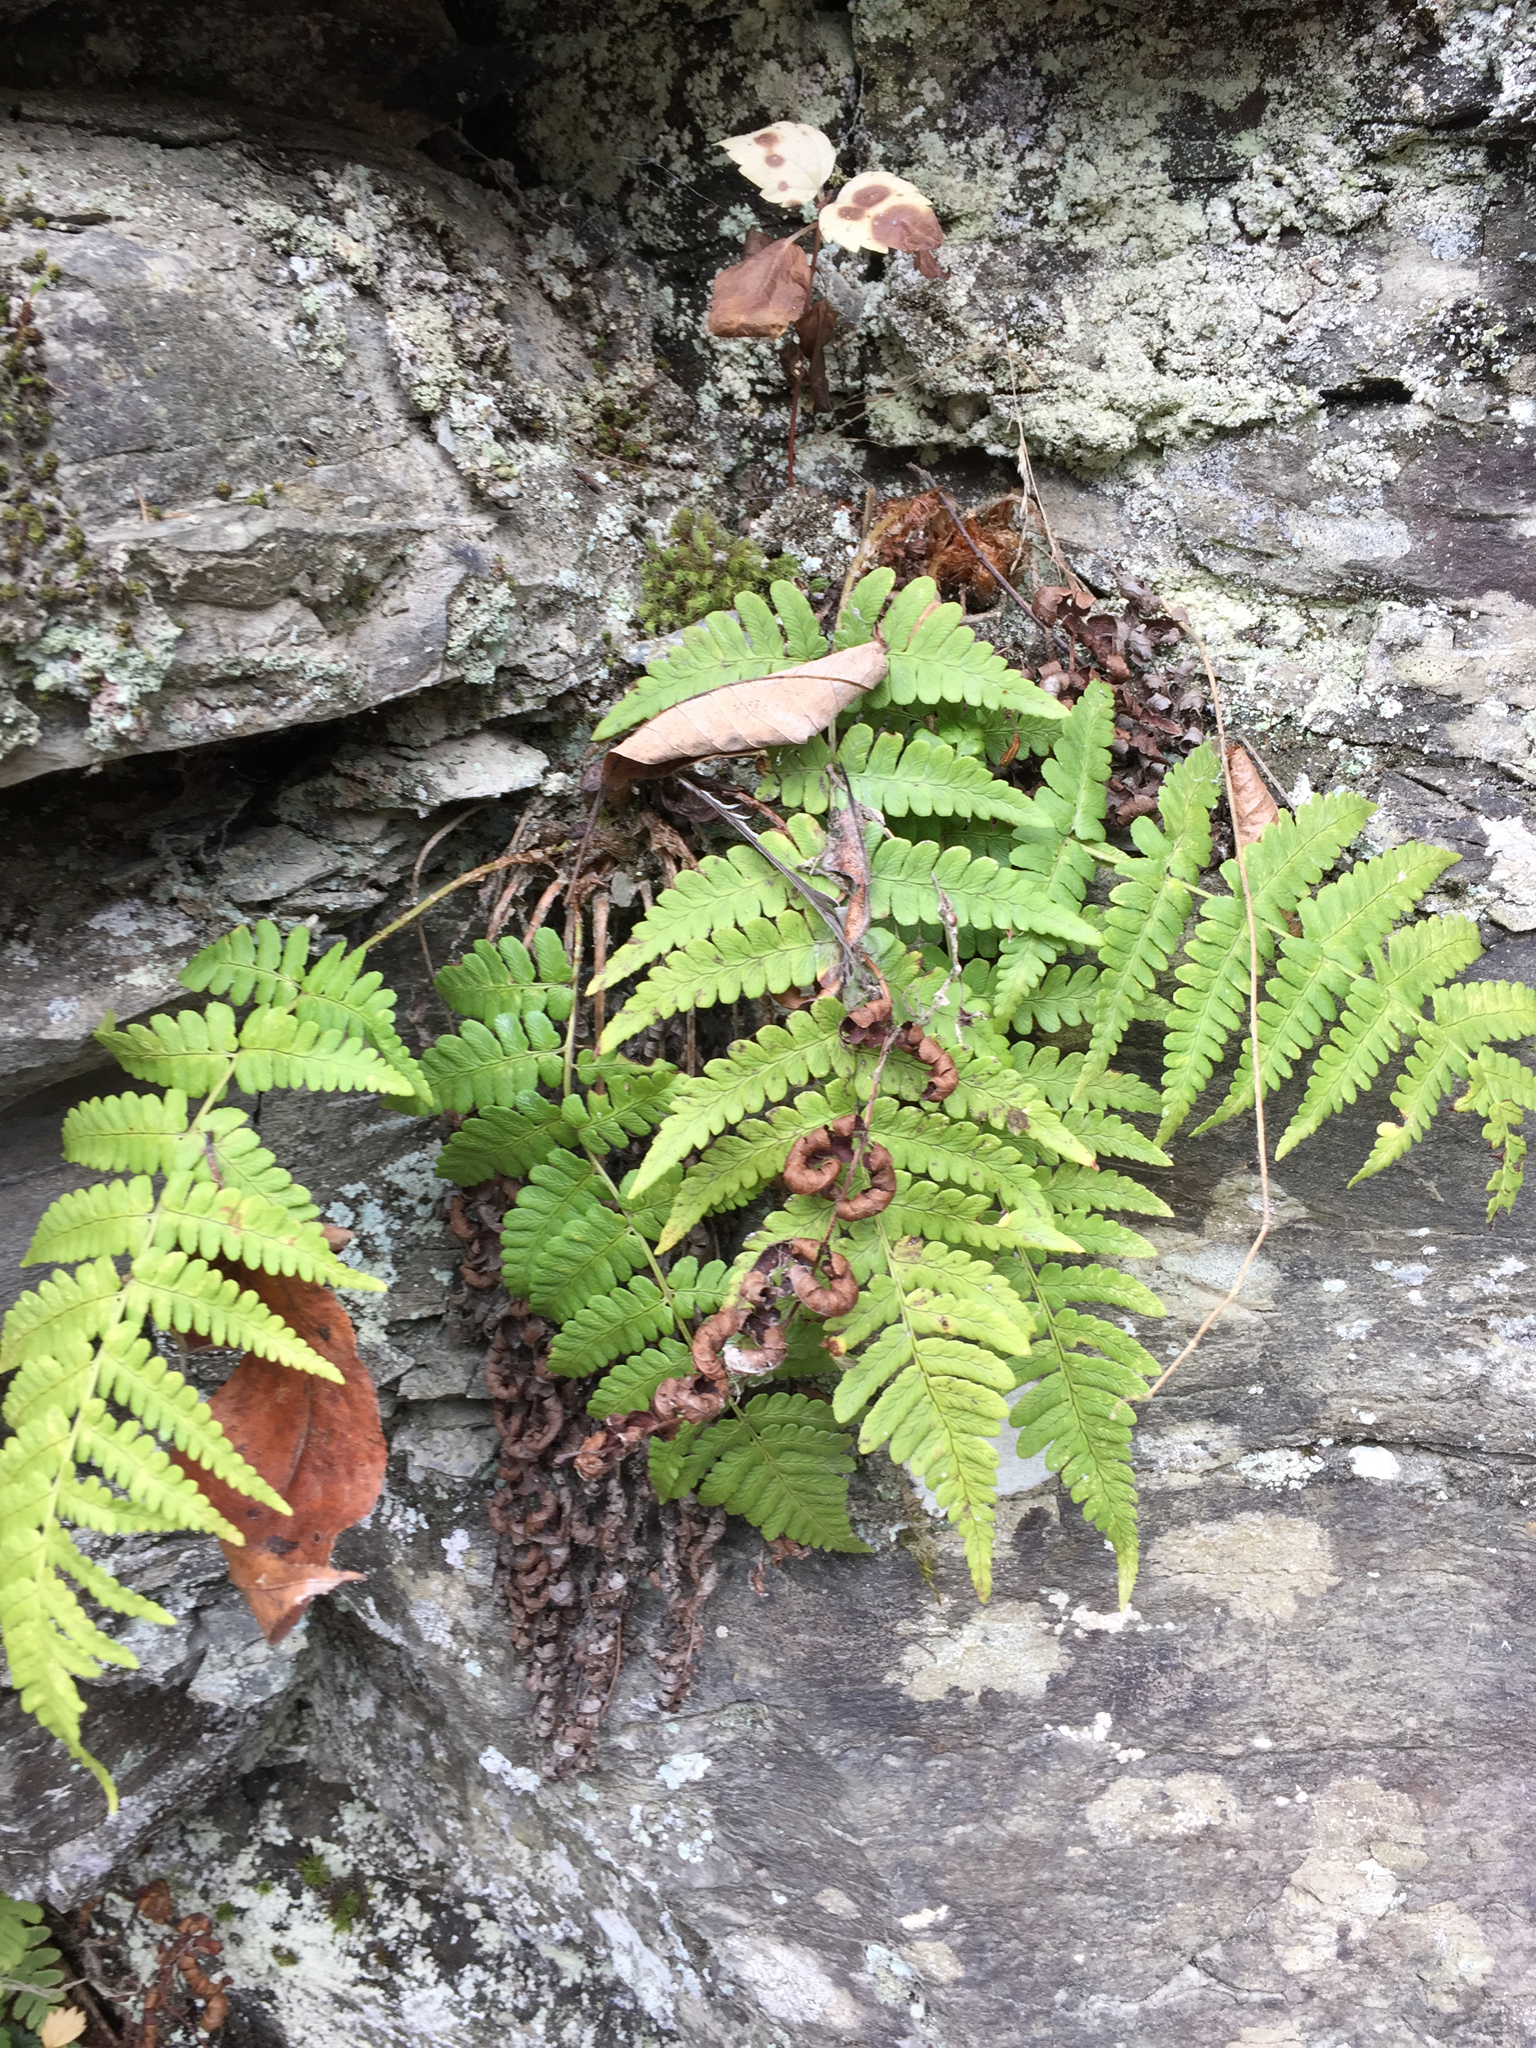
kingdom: Plantae
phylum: Tracheophyta
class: Polypodiopsida
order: Polypodiales
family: Dryopteridaceae
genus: Dryopteris
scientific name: Dryopteris marginalis
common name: Marginal wood fern
